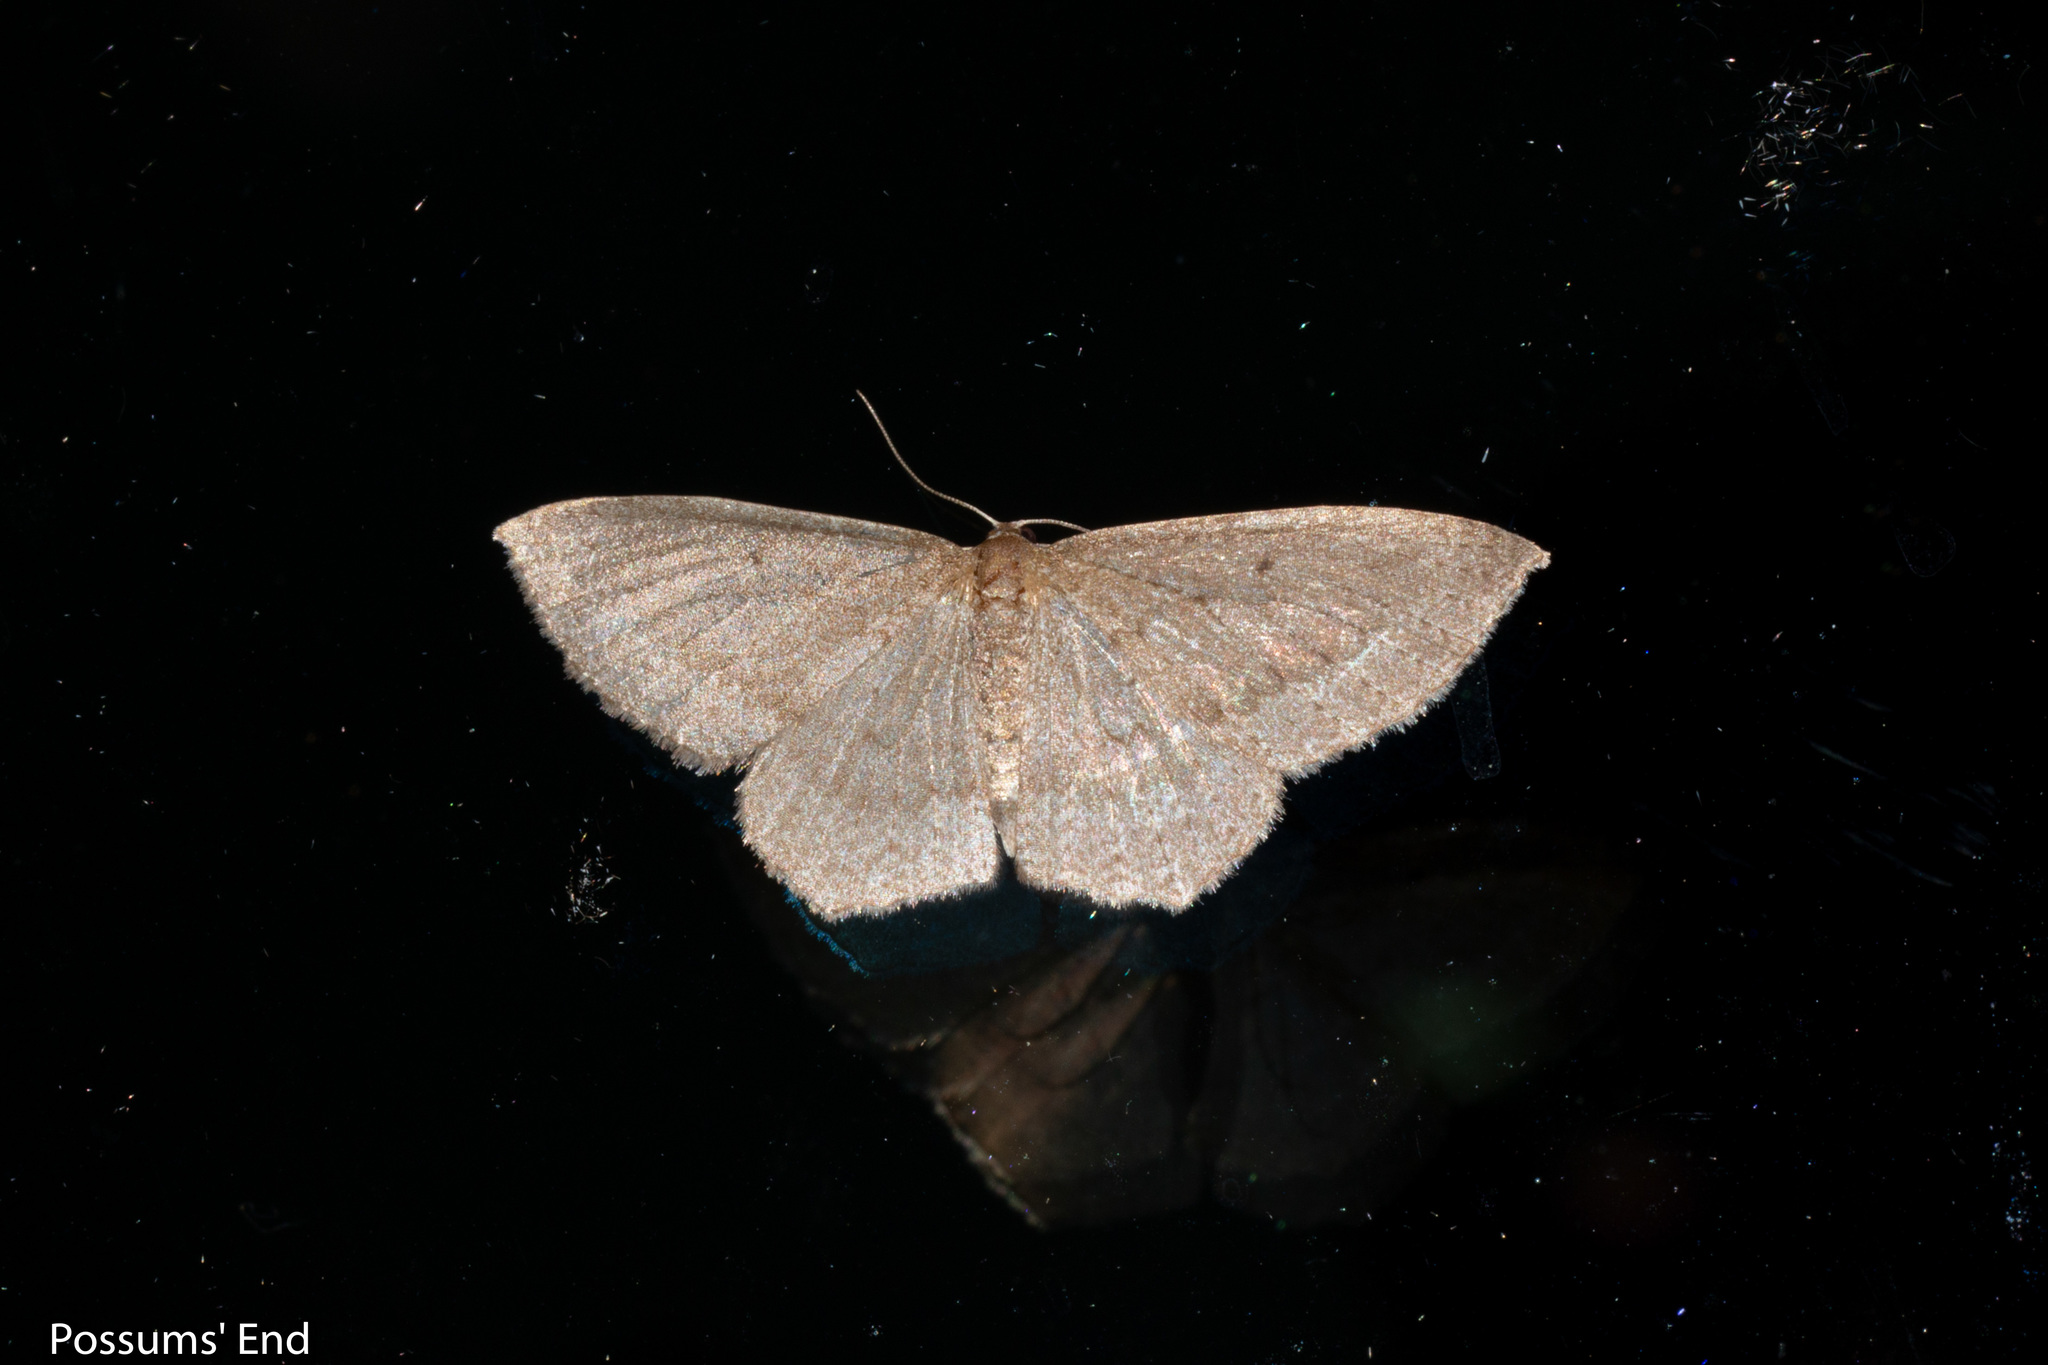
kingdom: Animalia
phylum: Arthropoda
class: Insecta
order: Lepidoptera
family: Geometridae
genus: Poecilasthena
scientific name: Poecilasthena subpurpureata
